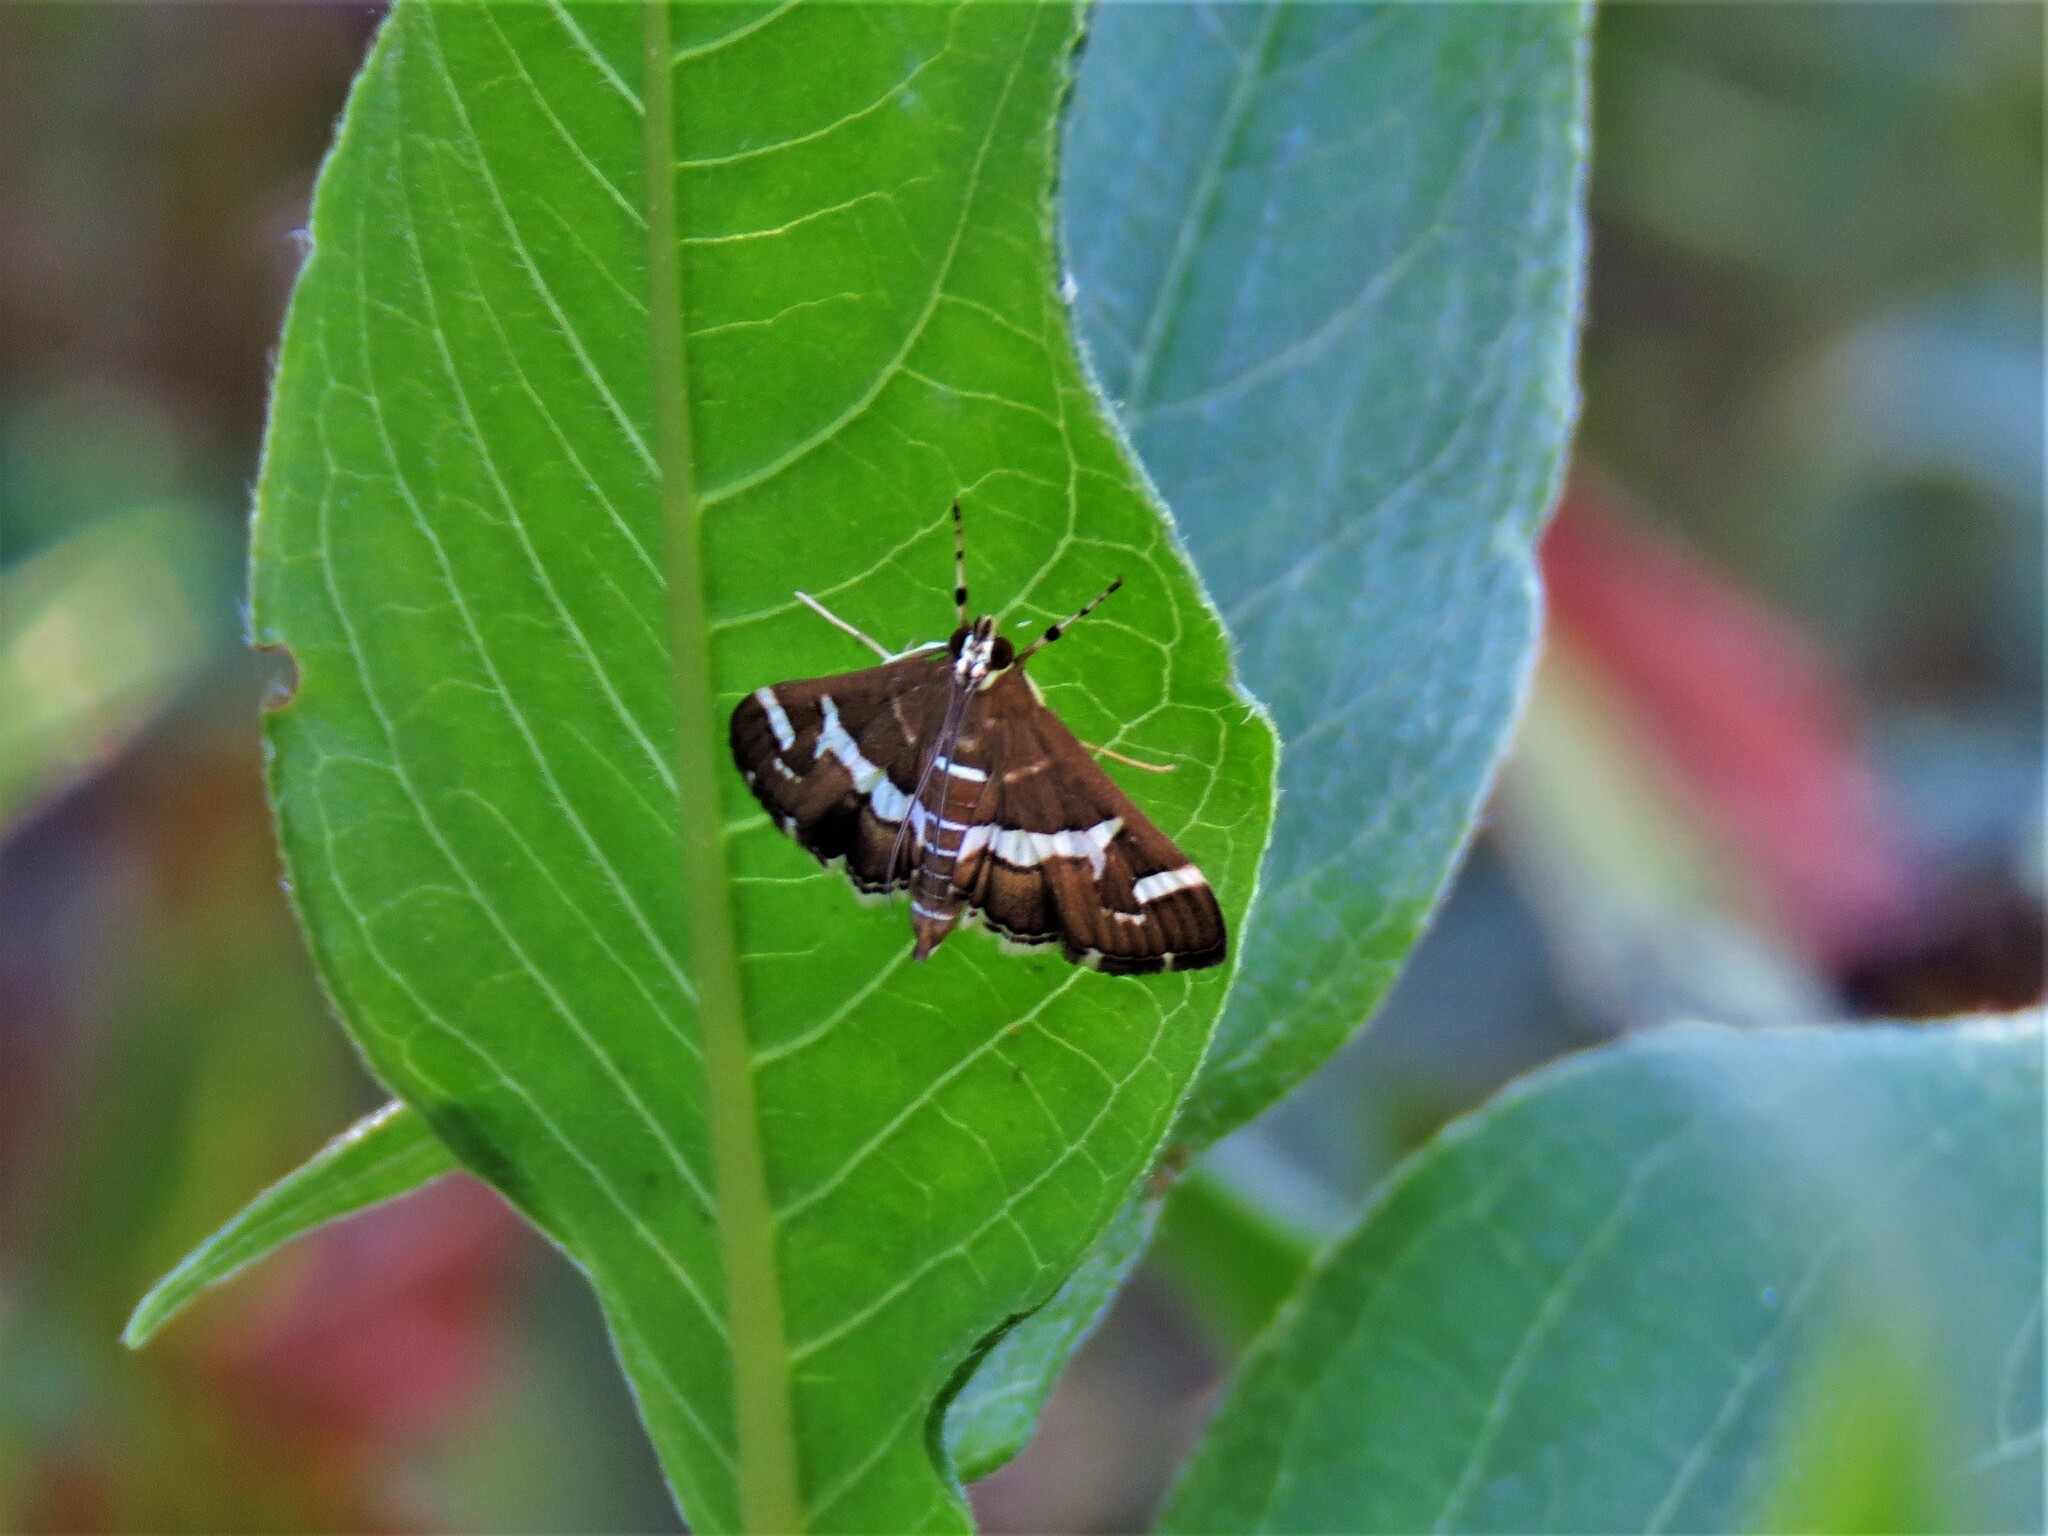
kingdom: Animalia
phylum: Arthropoda
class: Insecta
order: Lepidoptera
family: Crambidae
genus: Spoladea
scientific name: Spoladea recurvalis
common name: Beet webworm moth
